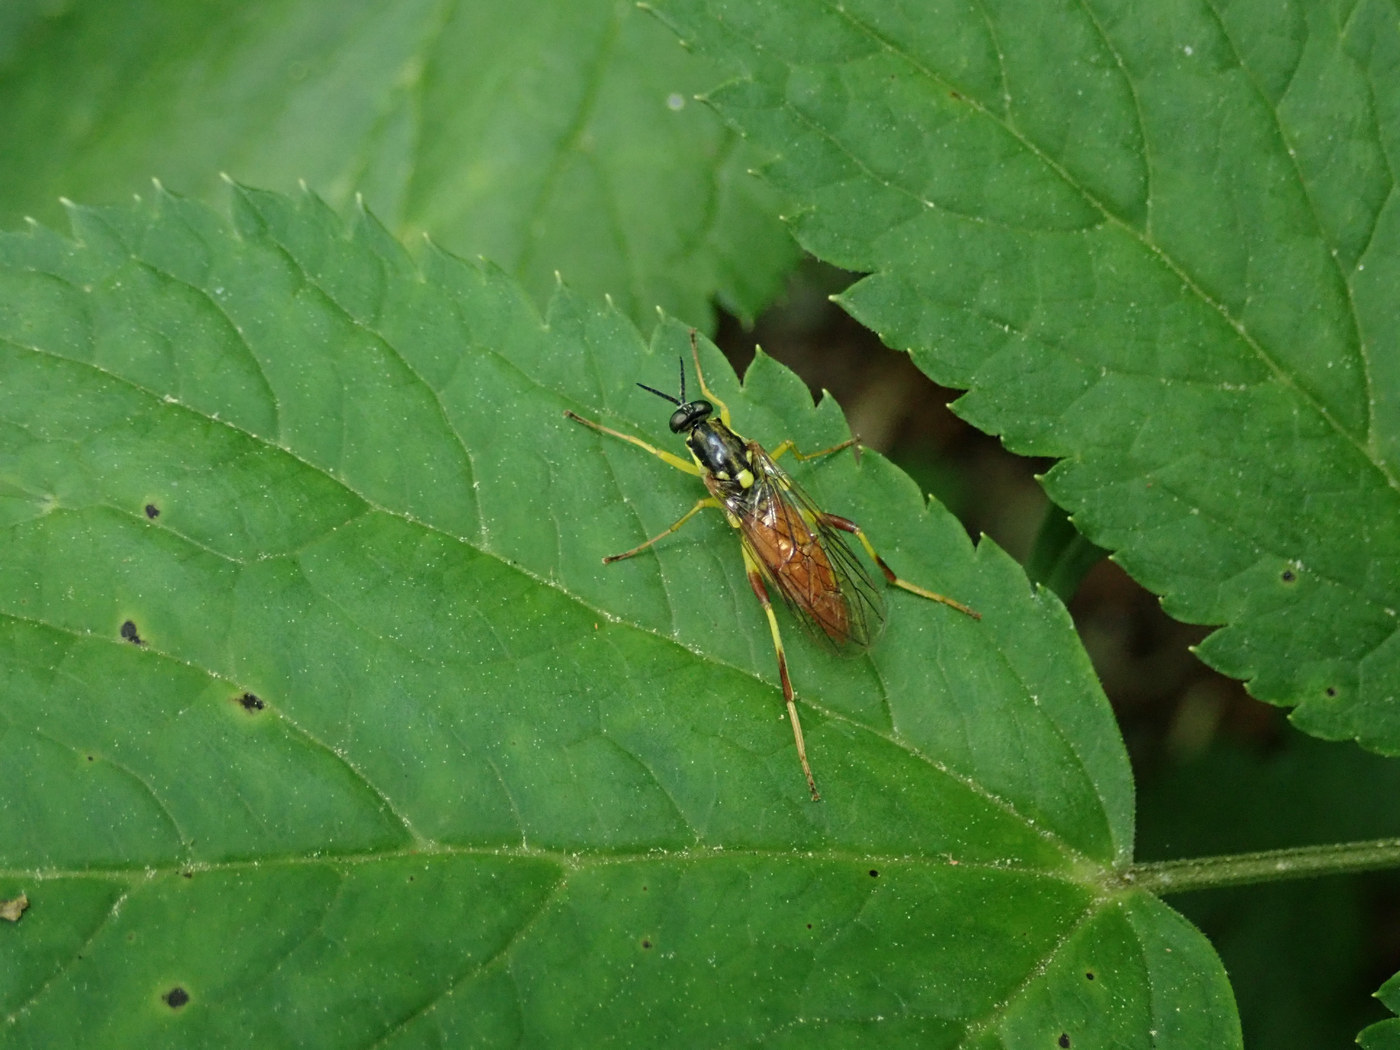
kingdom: Animalia
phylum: Arthropoda
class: Insecta
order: Diptera
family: Xylomyidae
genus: Xylomya
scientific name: Xylomya simillima
